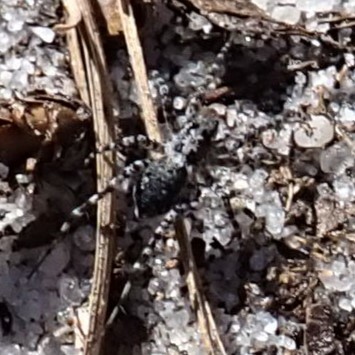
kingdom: Animalia
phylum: Arthropoda
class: Arachnida
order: Araneae
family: Lycosidae
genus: Arctosa
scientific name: Arctosa littoralis
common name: Wolf spiders
